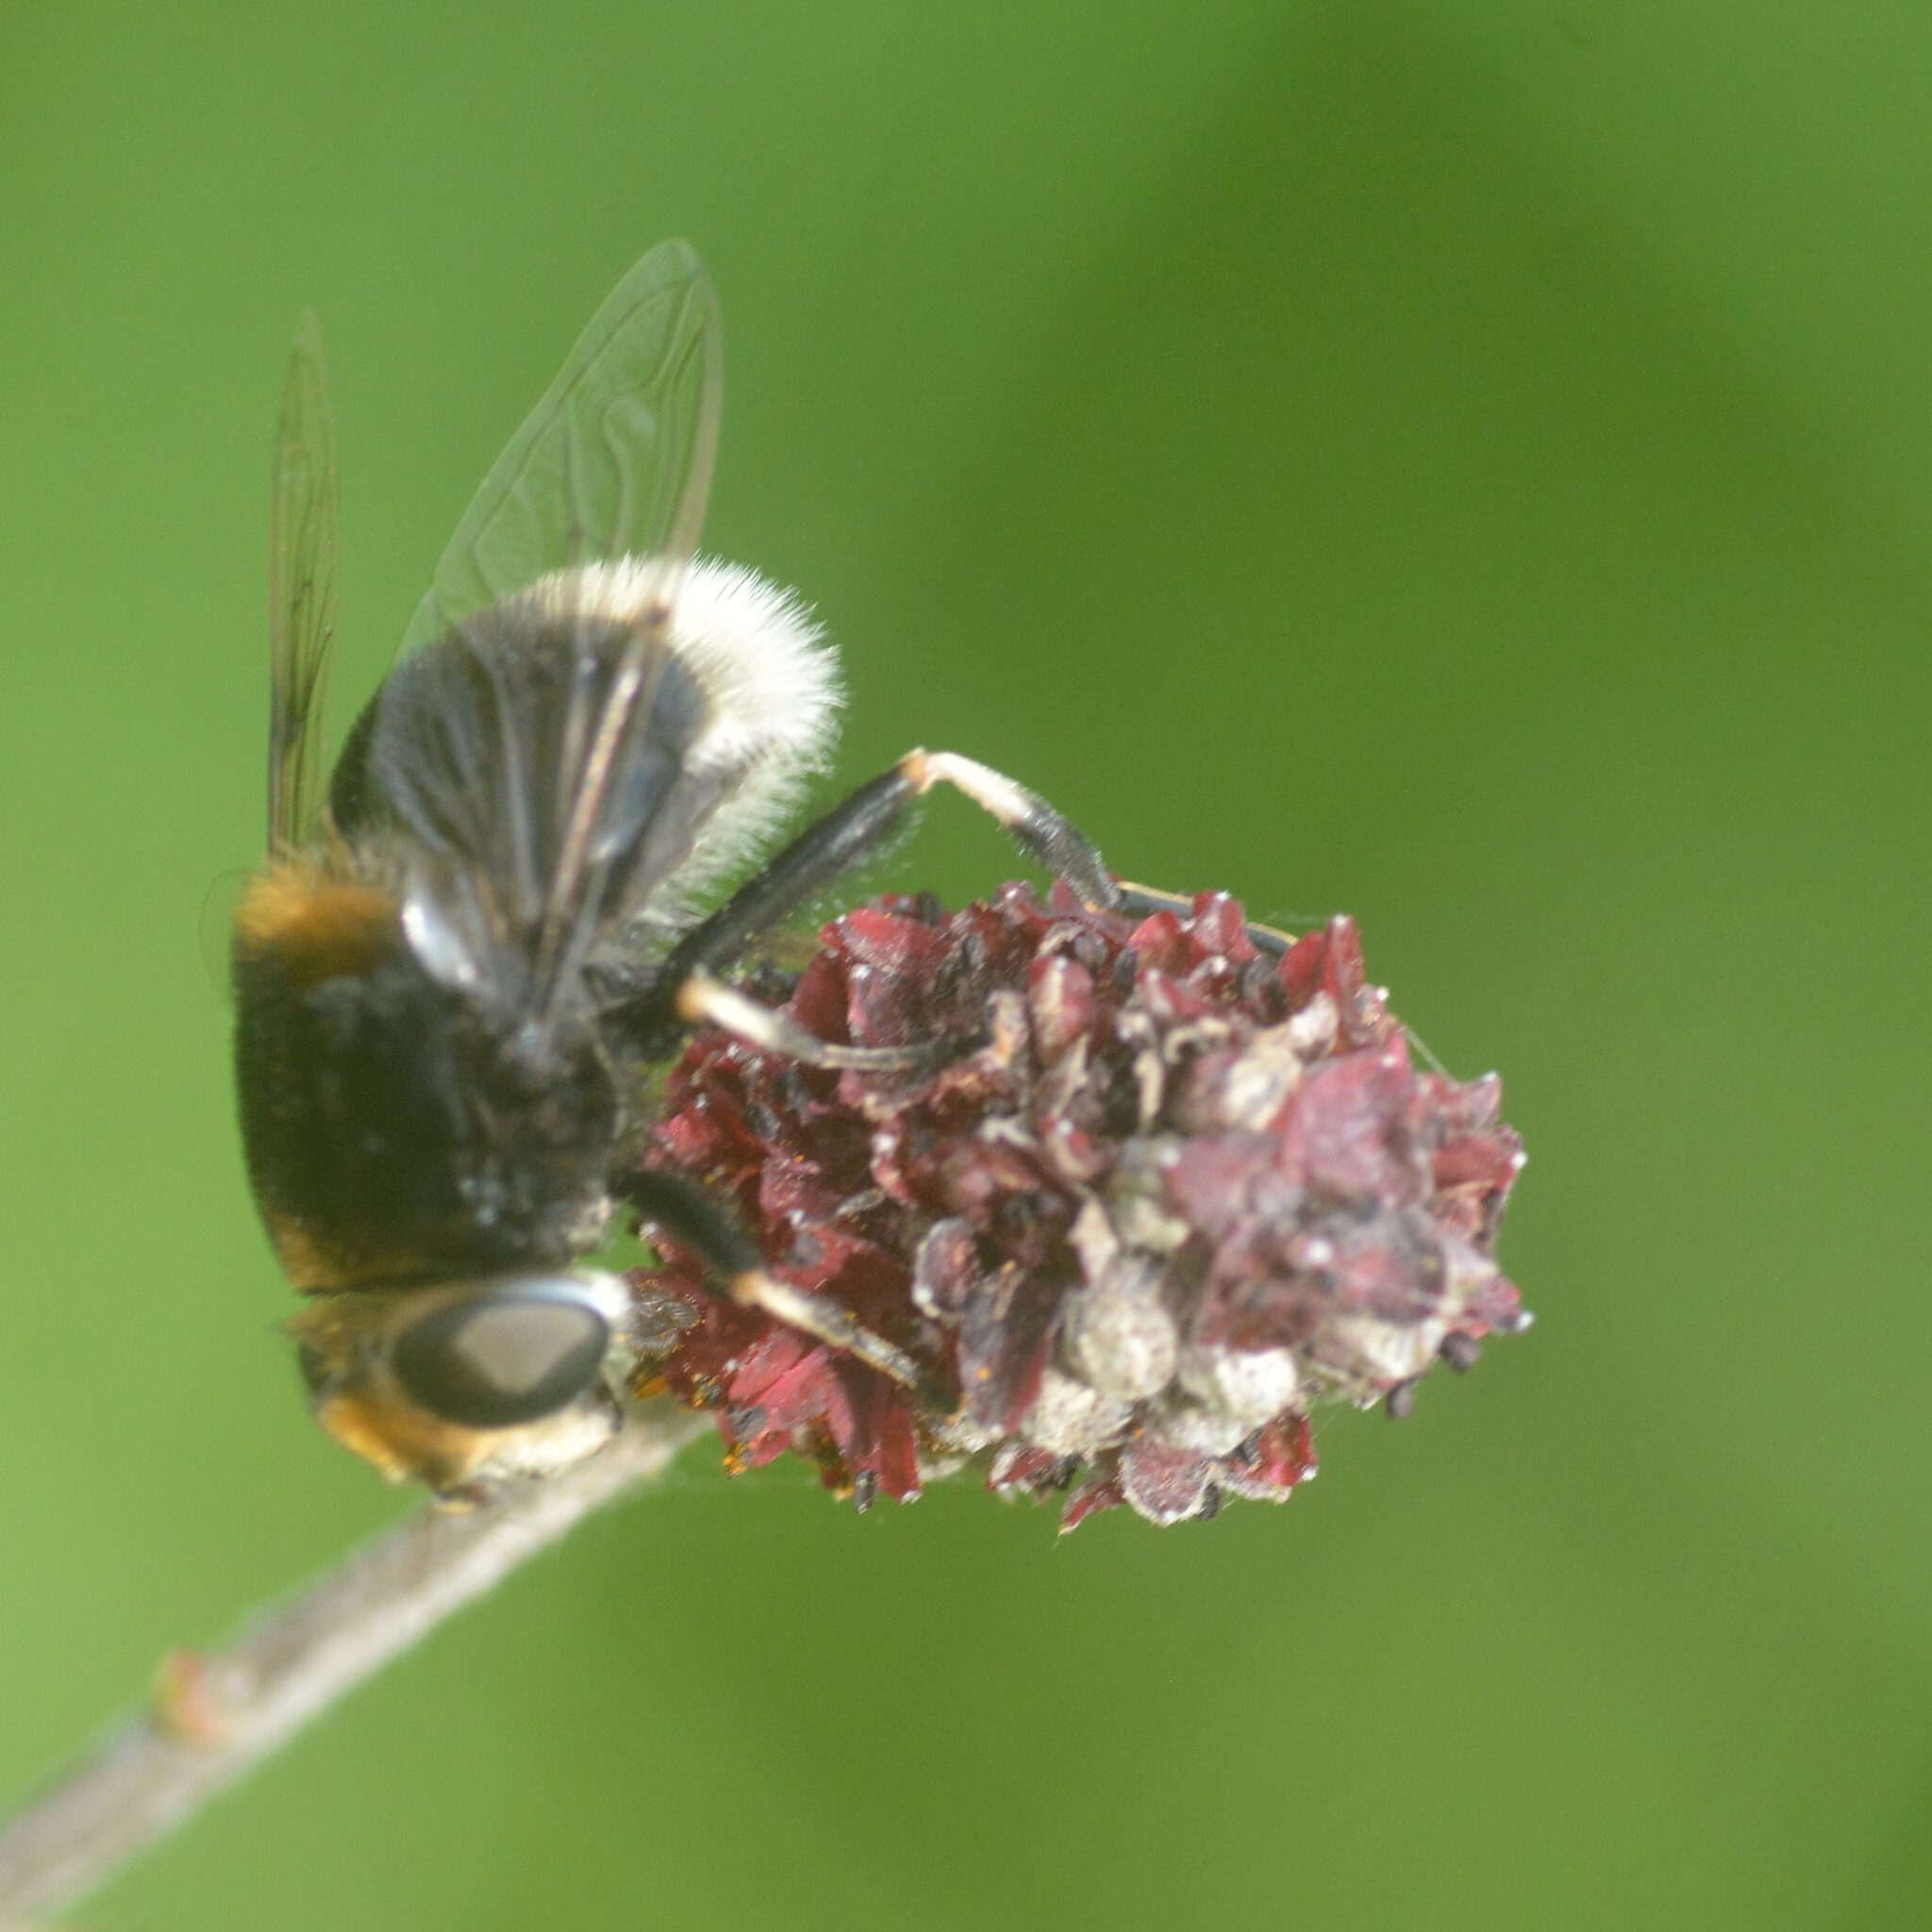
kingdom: Animalia
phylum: Arthropoda
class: Insecta
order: Diptera
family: Syrphidae
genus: Eristalis
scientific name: Eristalis intricaria
